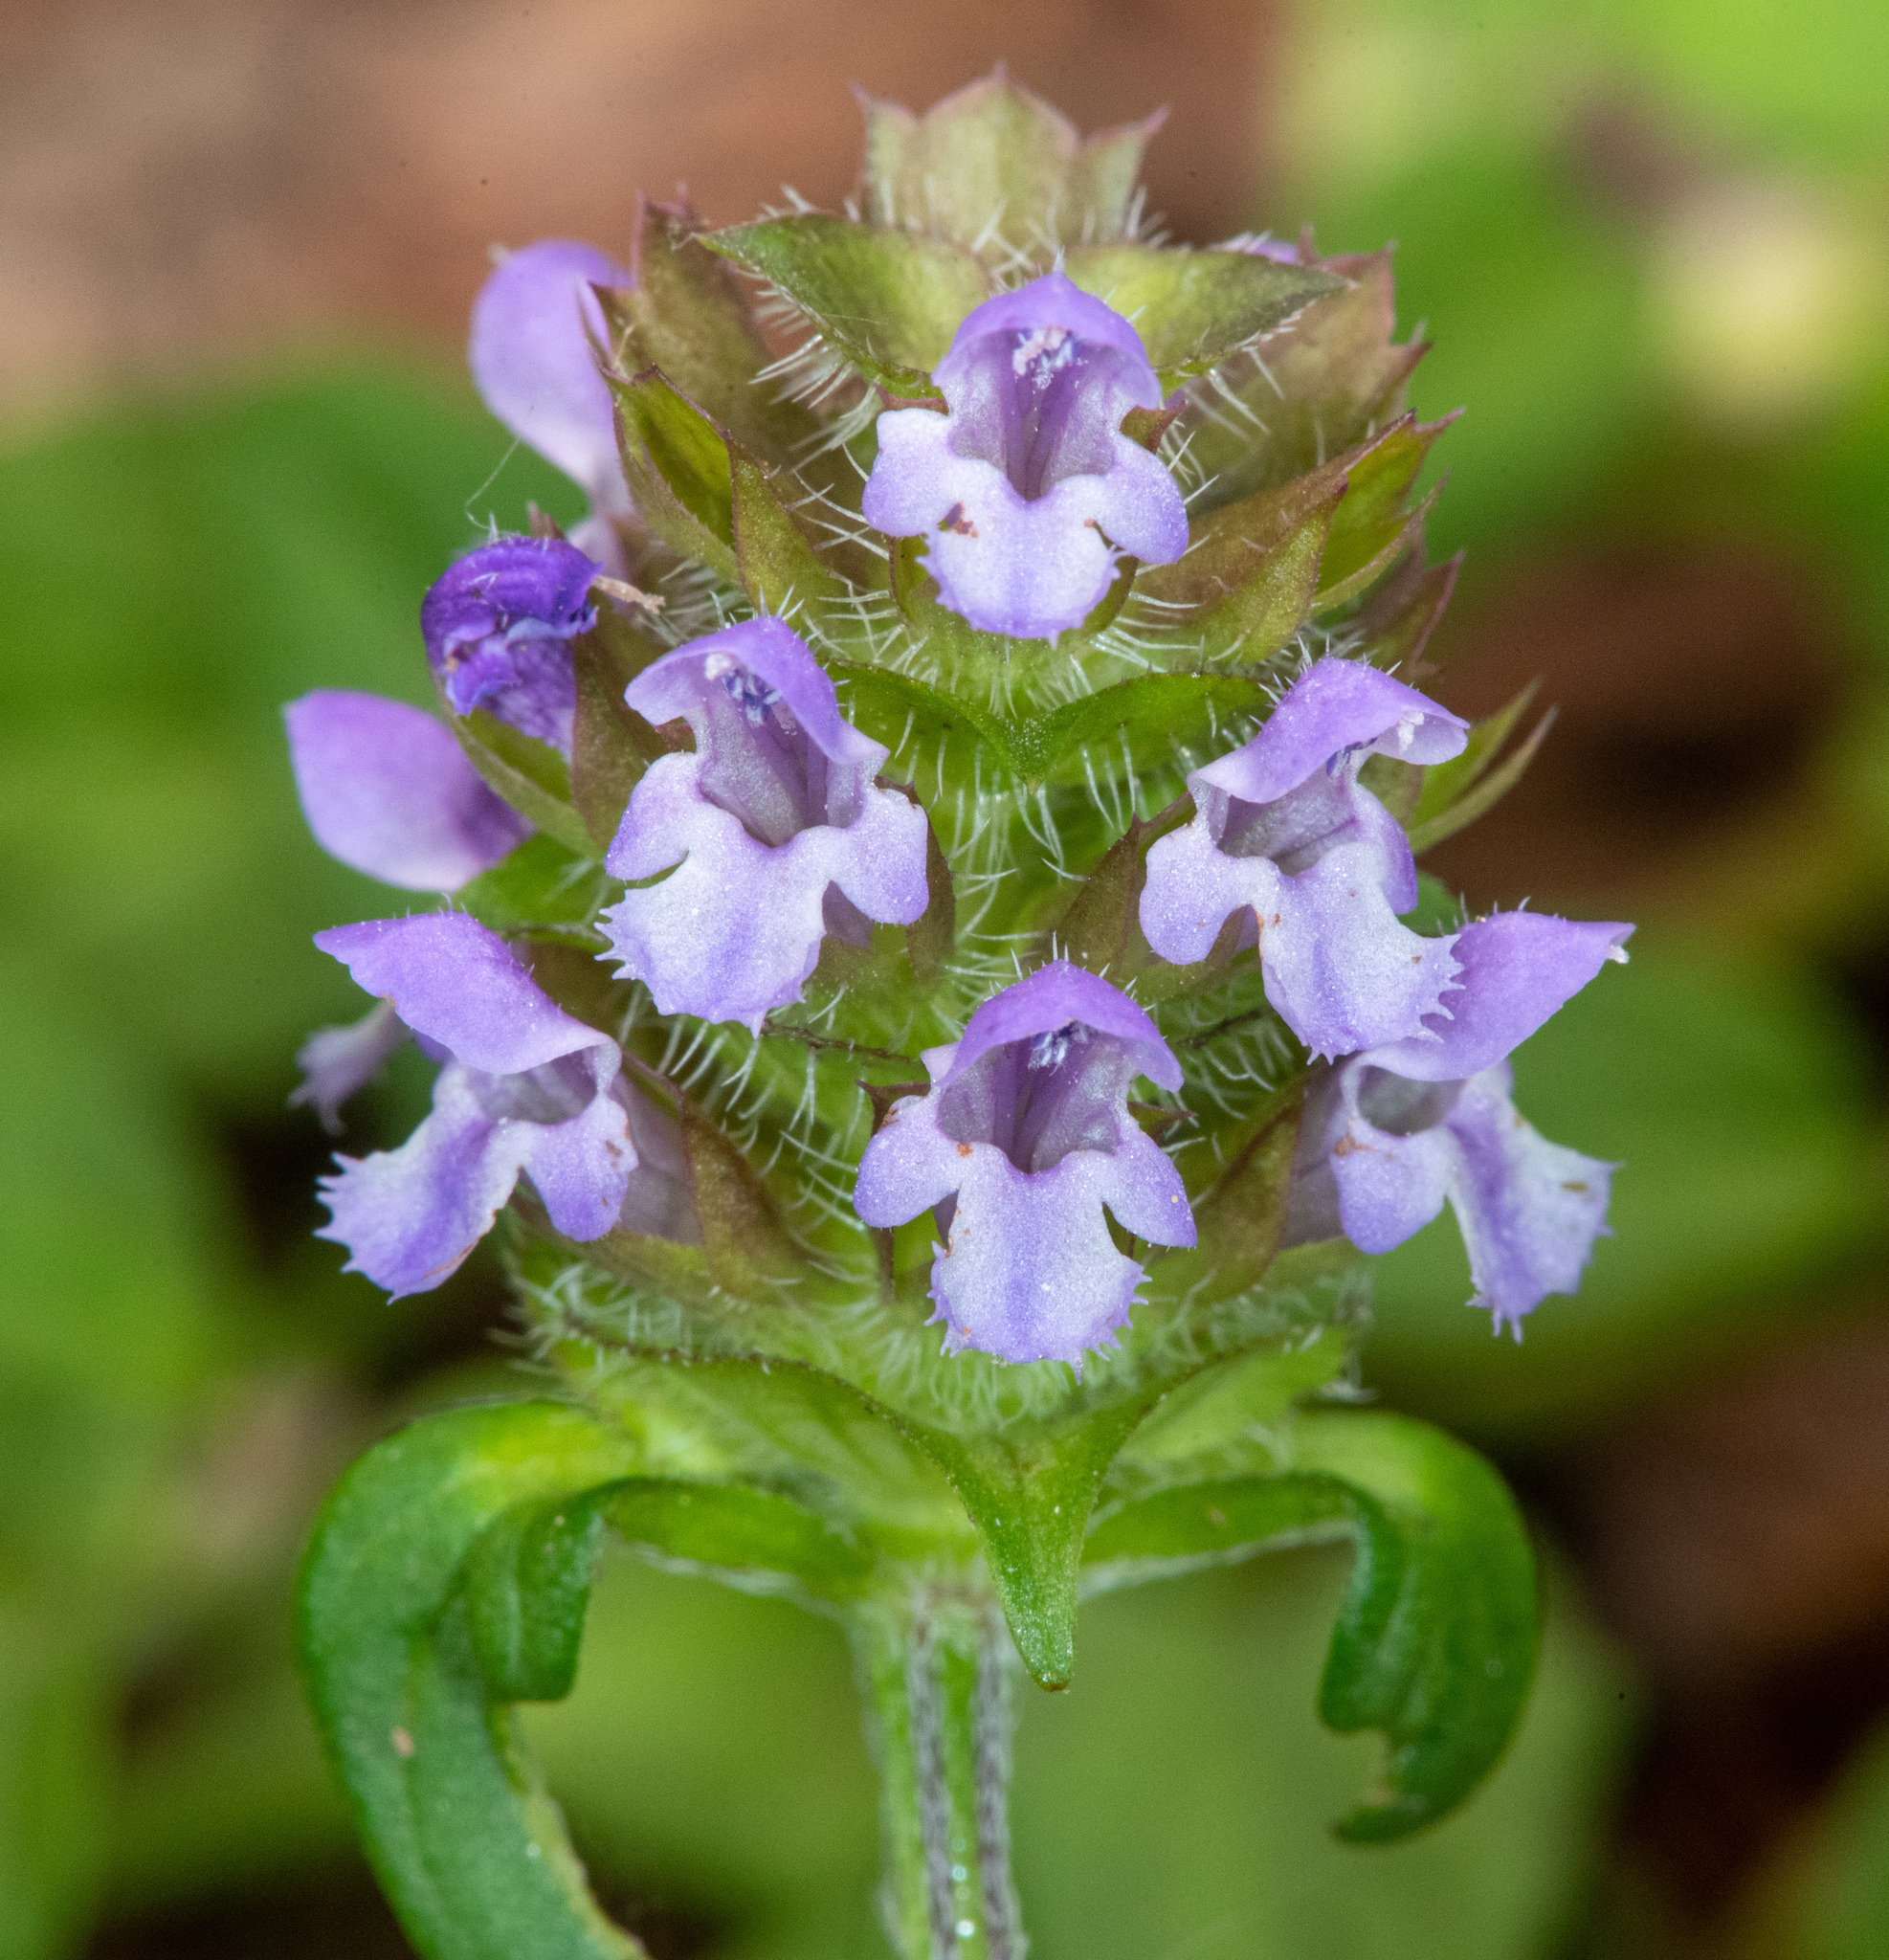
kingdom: Plantae
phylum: Tracheophyta
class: Magnoliopsida
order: Lamiales
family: Lamiaceae
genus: Prunella
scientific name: Prunella vulgaris
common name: Heal-all
